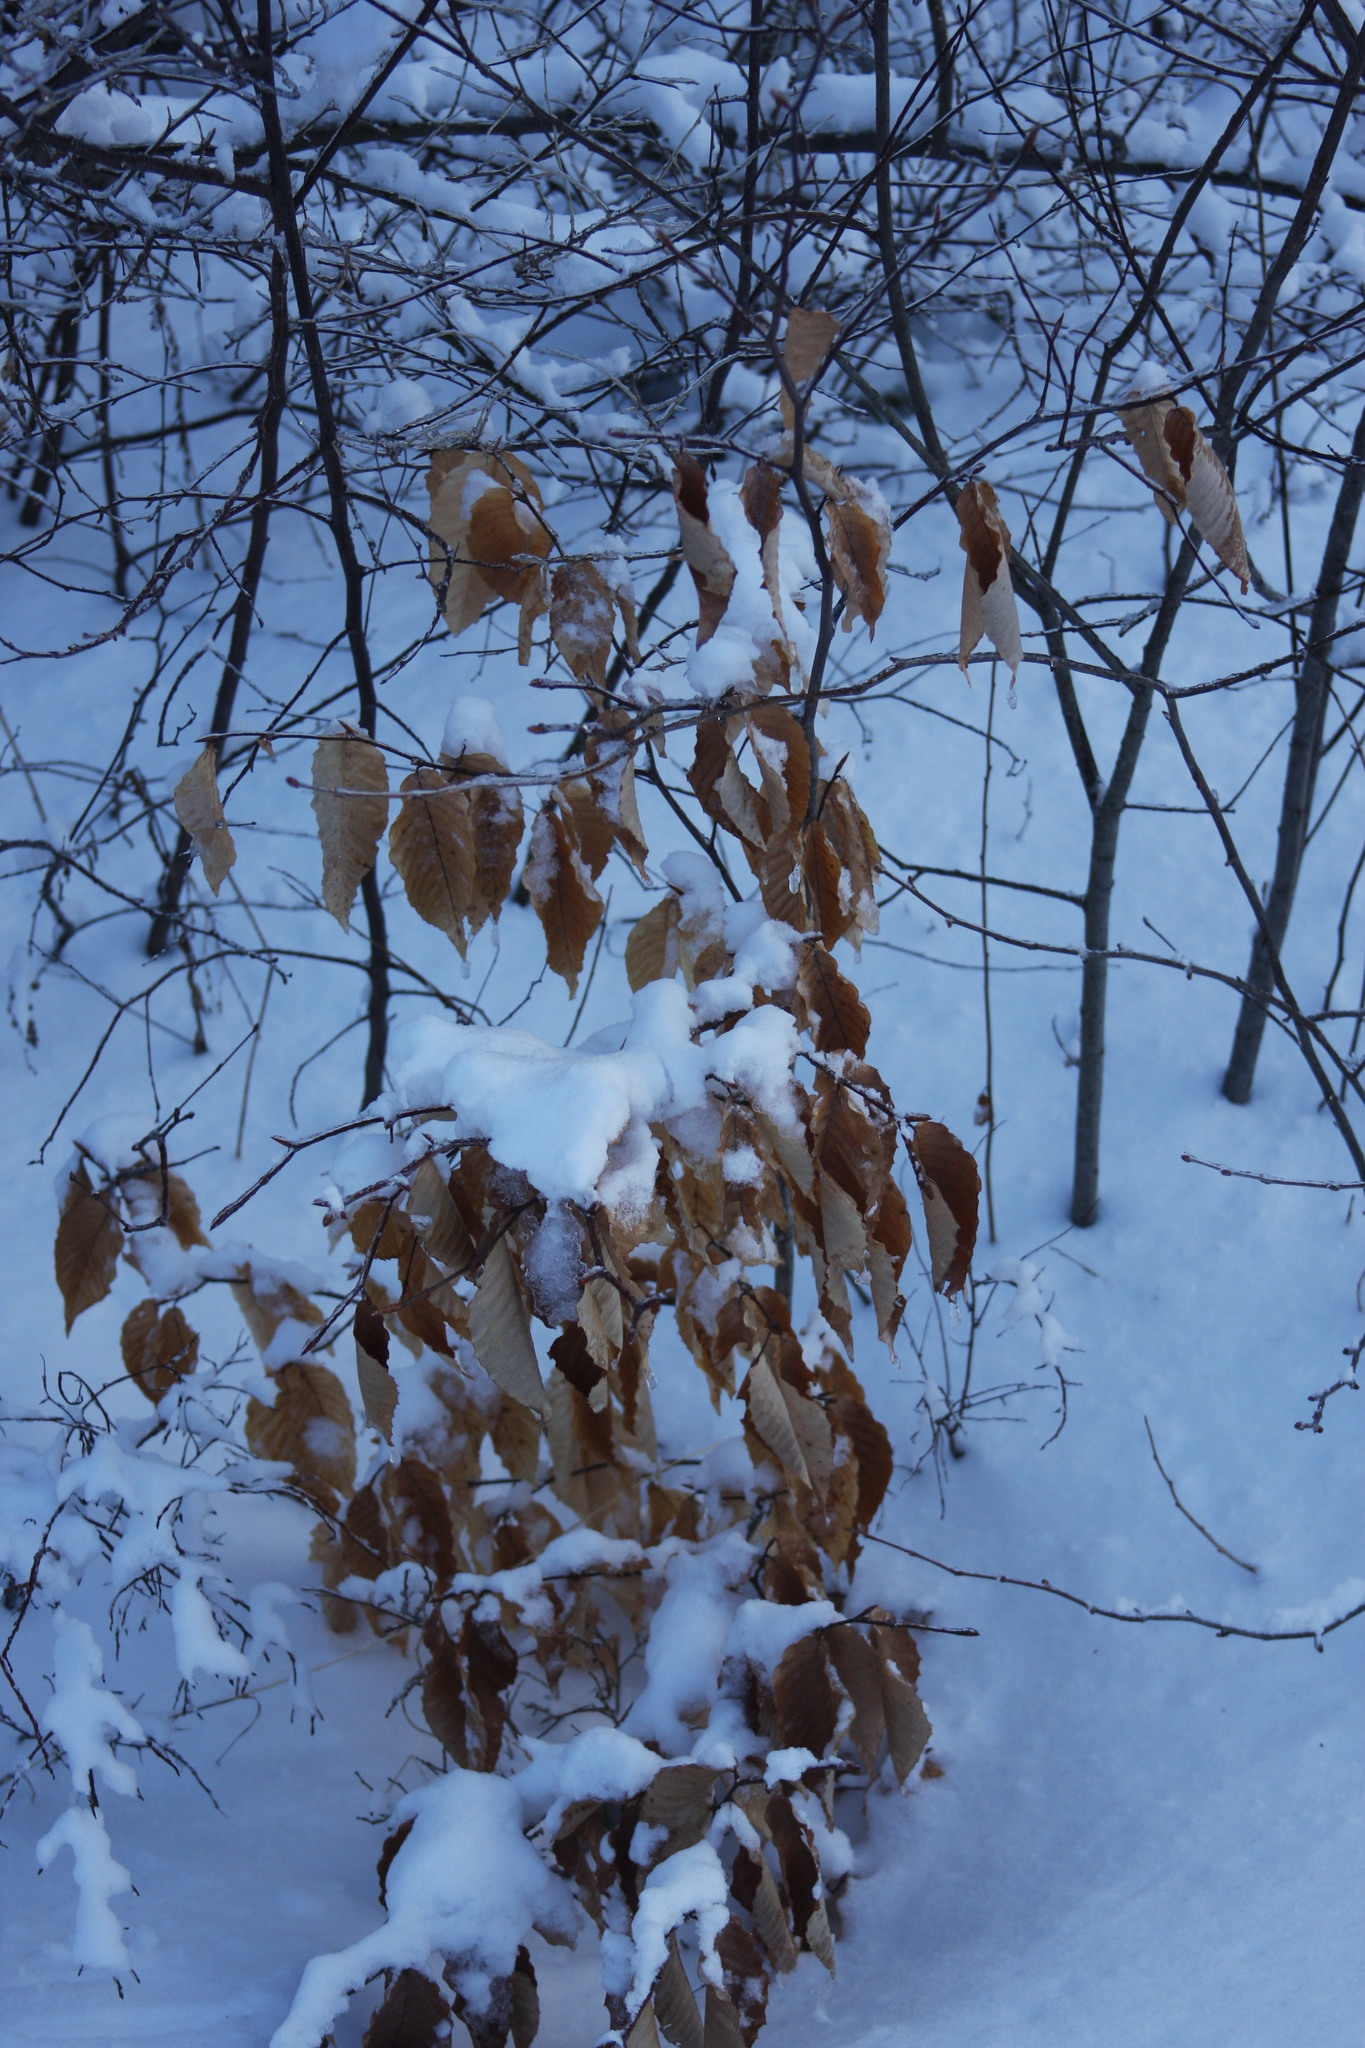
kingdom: Plantae
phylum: Tracheophyta
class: Magnoliopsida
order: Fagales
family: Fagaceae
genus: Fagus
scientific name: Fagus grandifolia
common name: American beech
